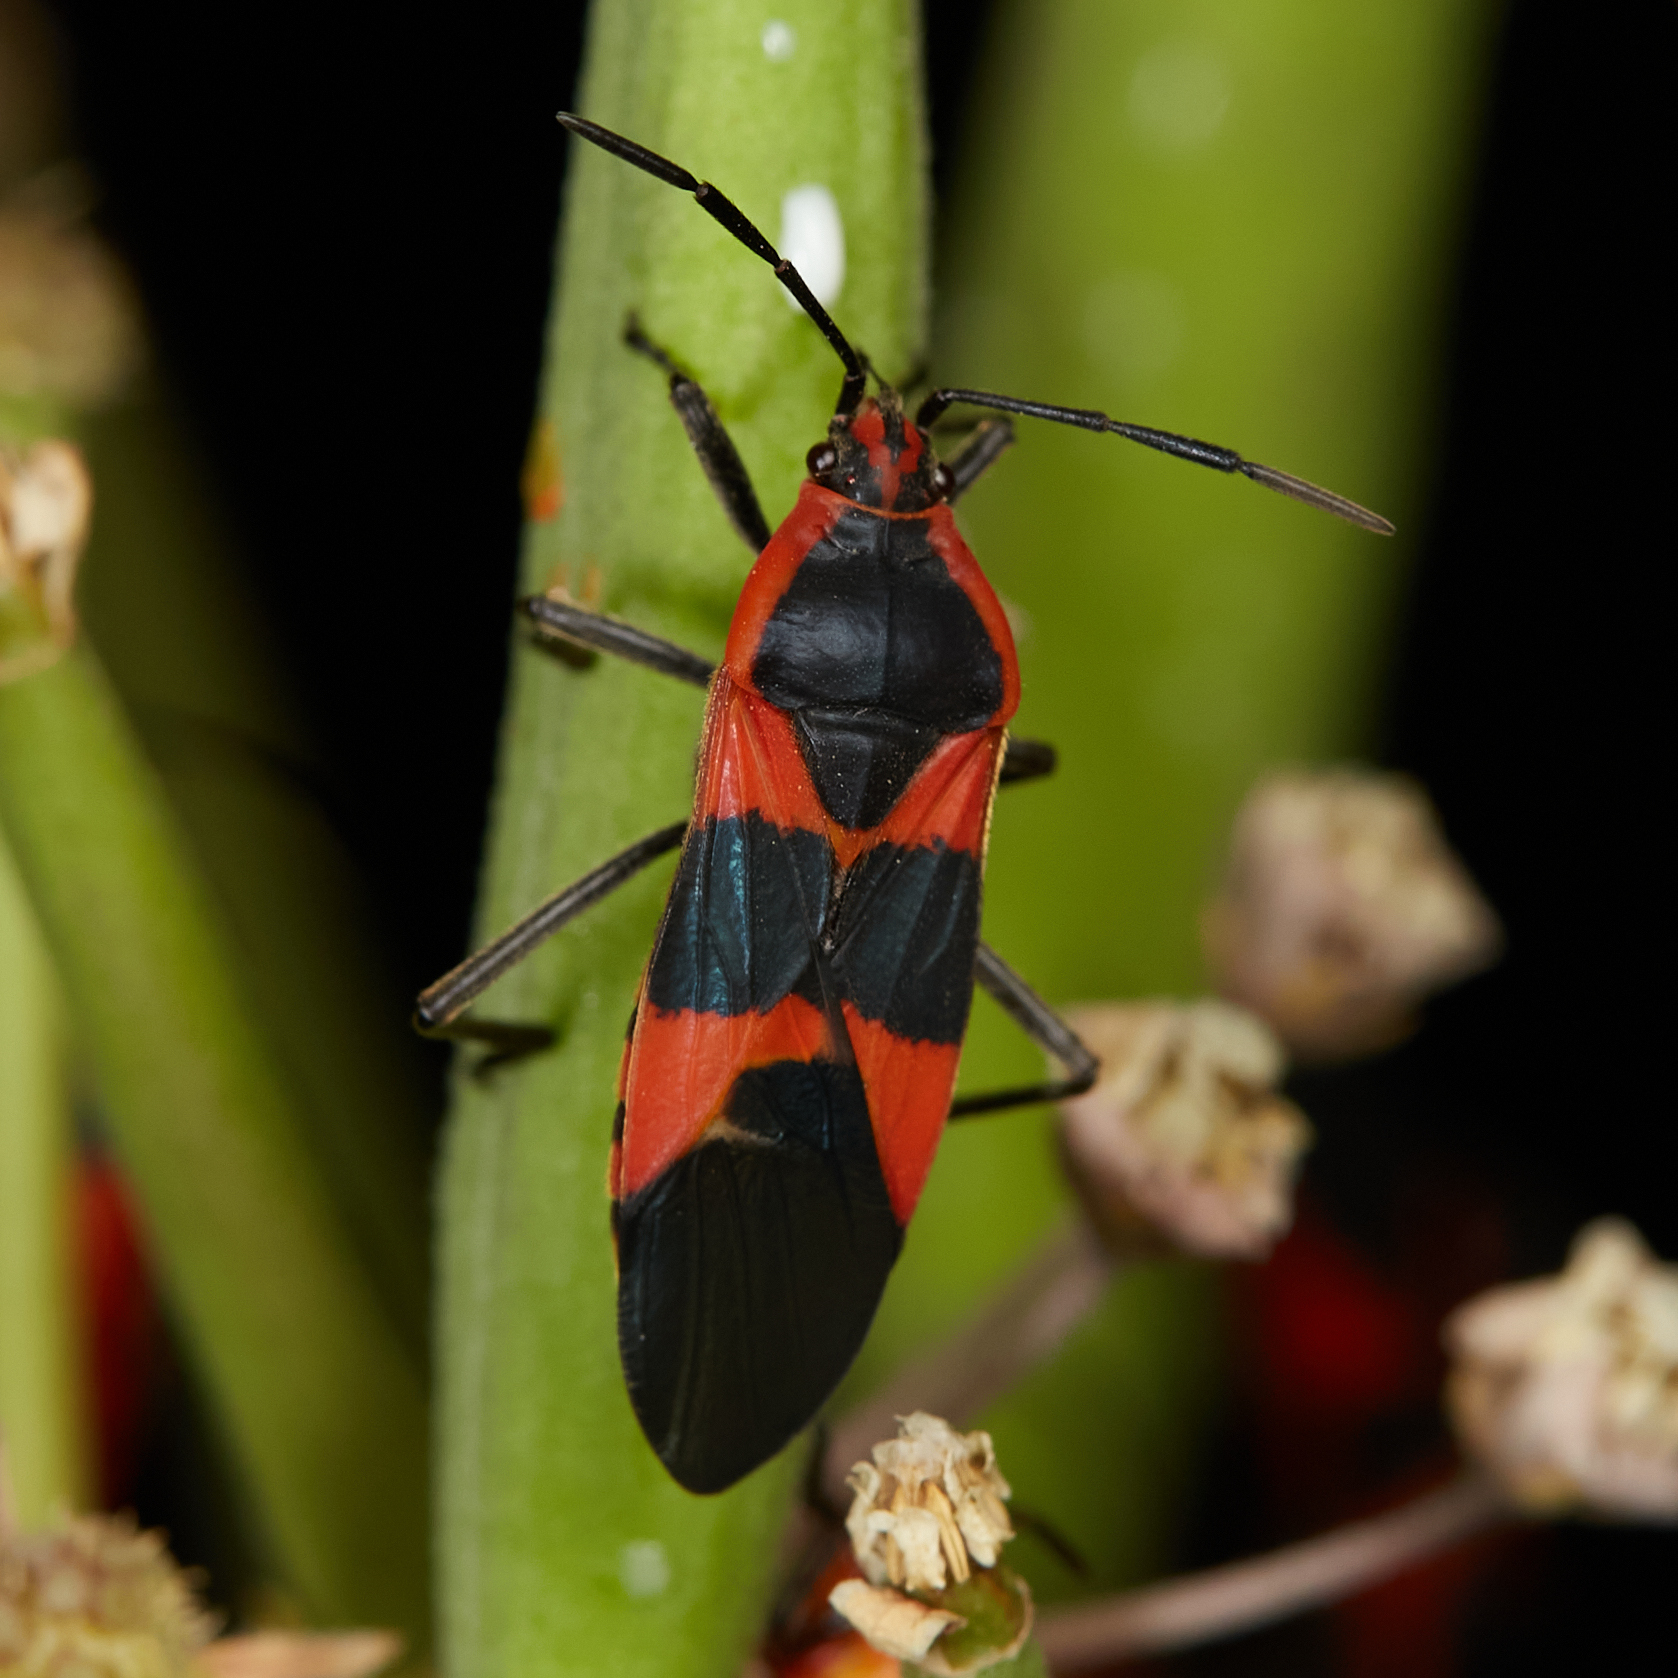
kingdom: Animalia
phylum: Arthropoda
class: Insecta
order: Hemiptera
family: Lygaeidae
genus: Oncopeltus
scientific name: Oncopeltus fasciatus
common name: Large milkweed bug
